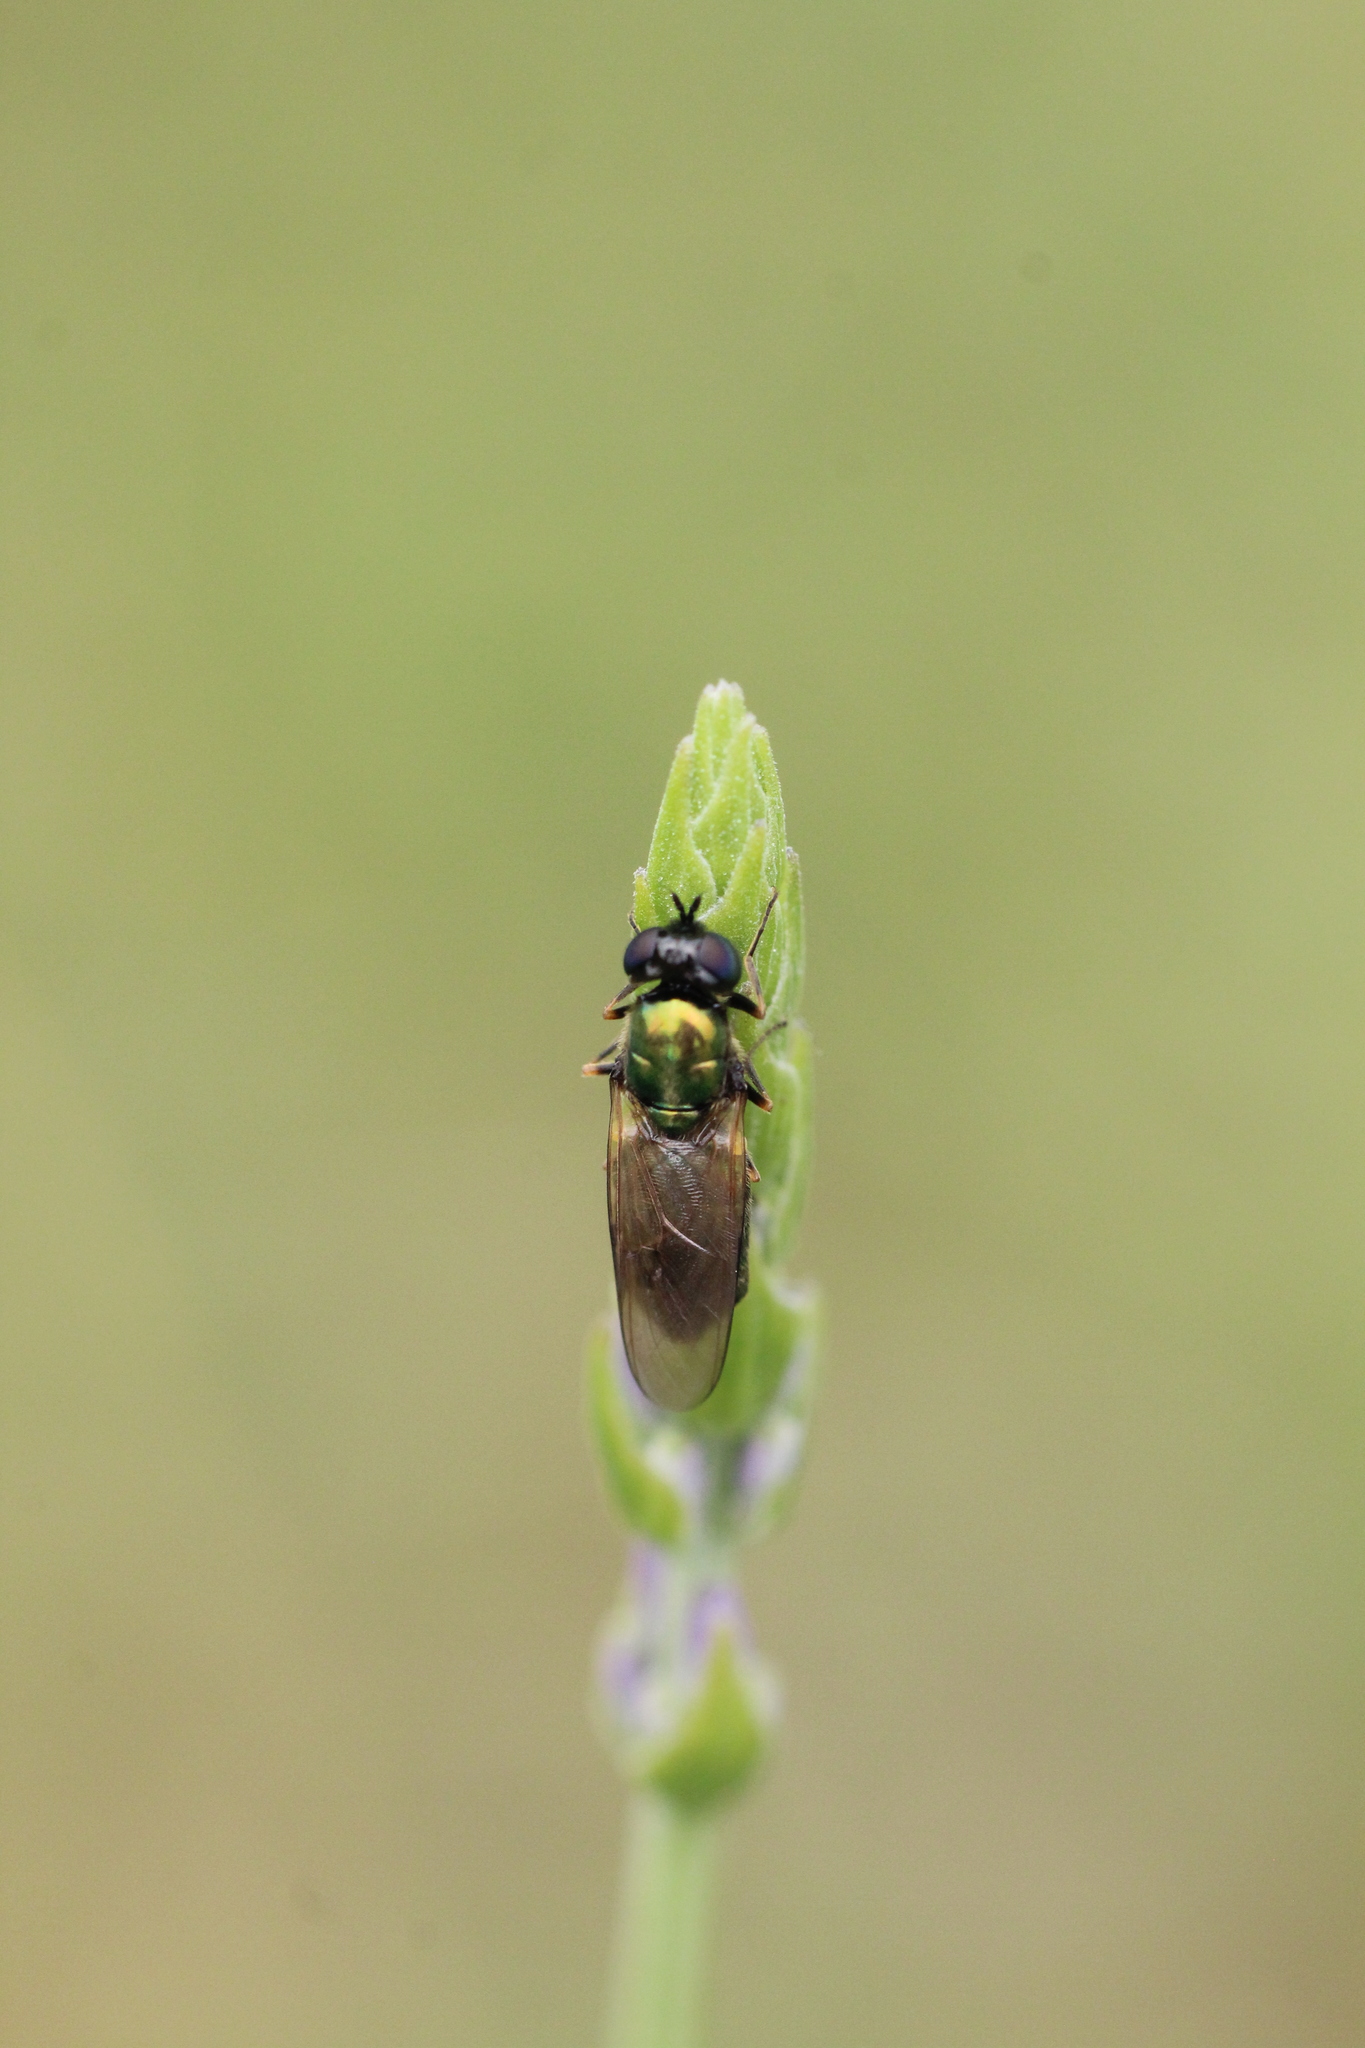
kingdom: Animalia
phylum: Arthropoda
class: Insecta
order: Diptera
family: Stratiomyidae
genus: Chloromyia
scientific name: Chloromyia formosa
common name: Soldier fly
